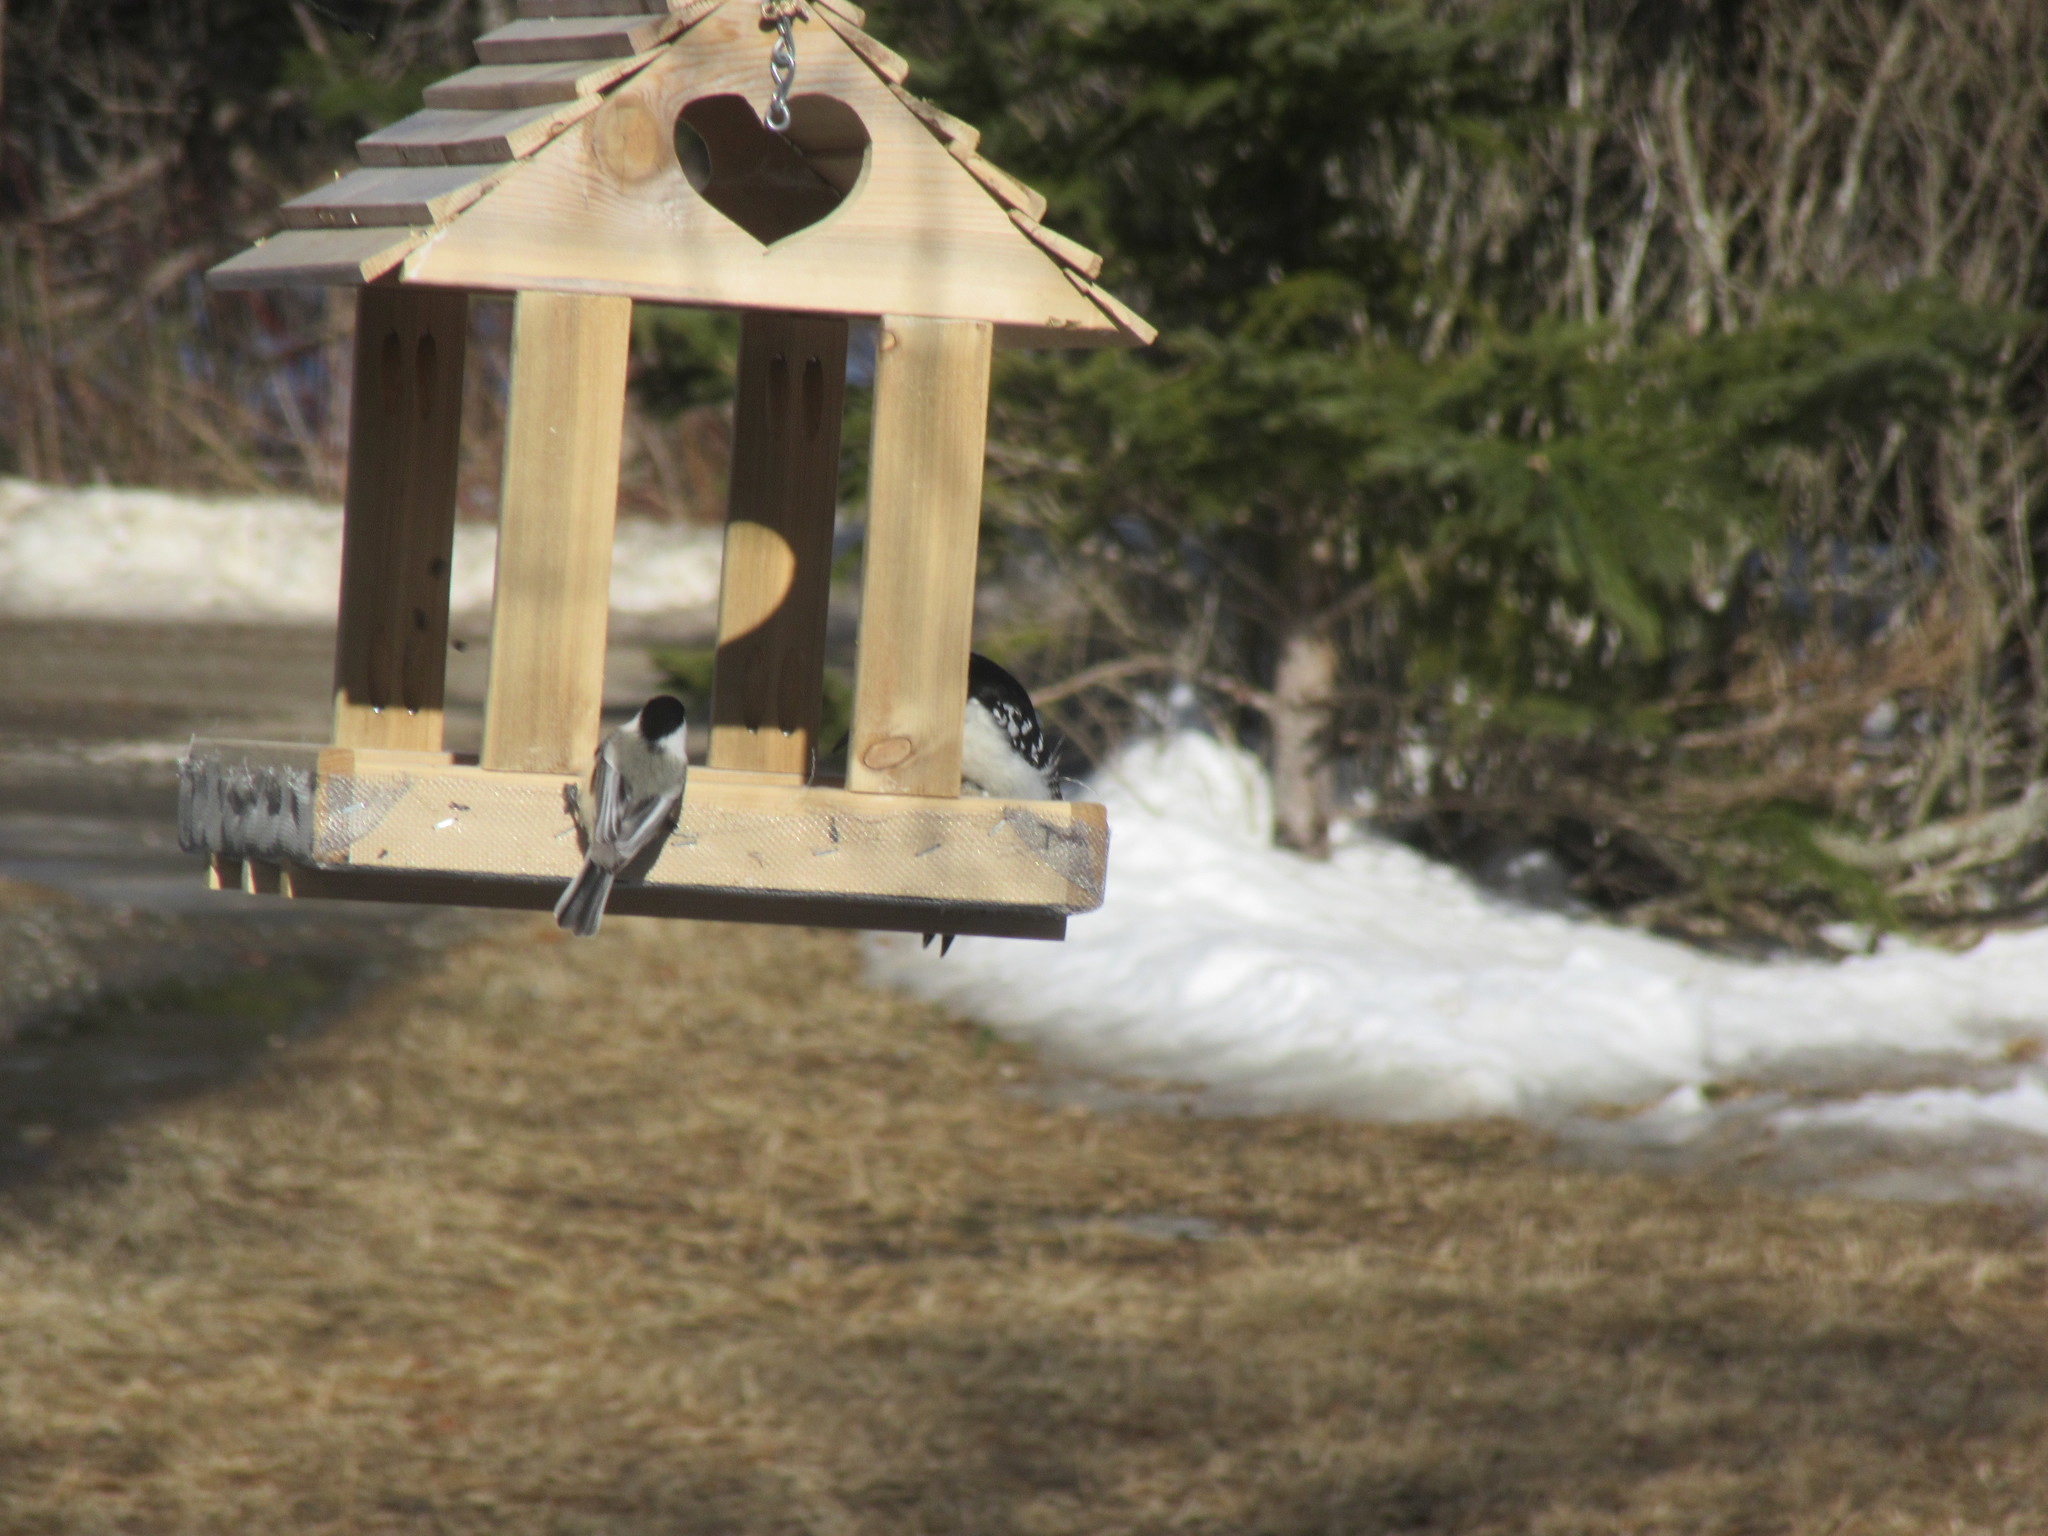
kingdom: Animalia
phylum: Chordata
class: Aves
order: Passeriformes
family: Paridae
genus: Poecile
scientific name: Poecile atricapillus
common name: Black-capped chickadee
